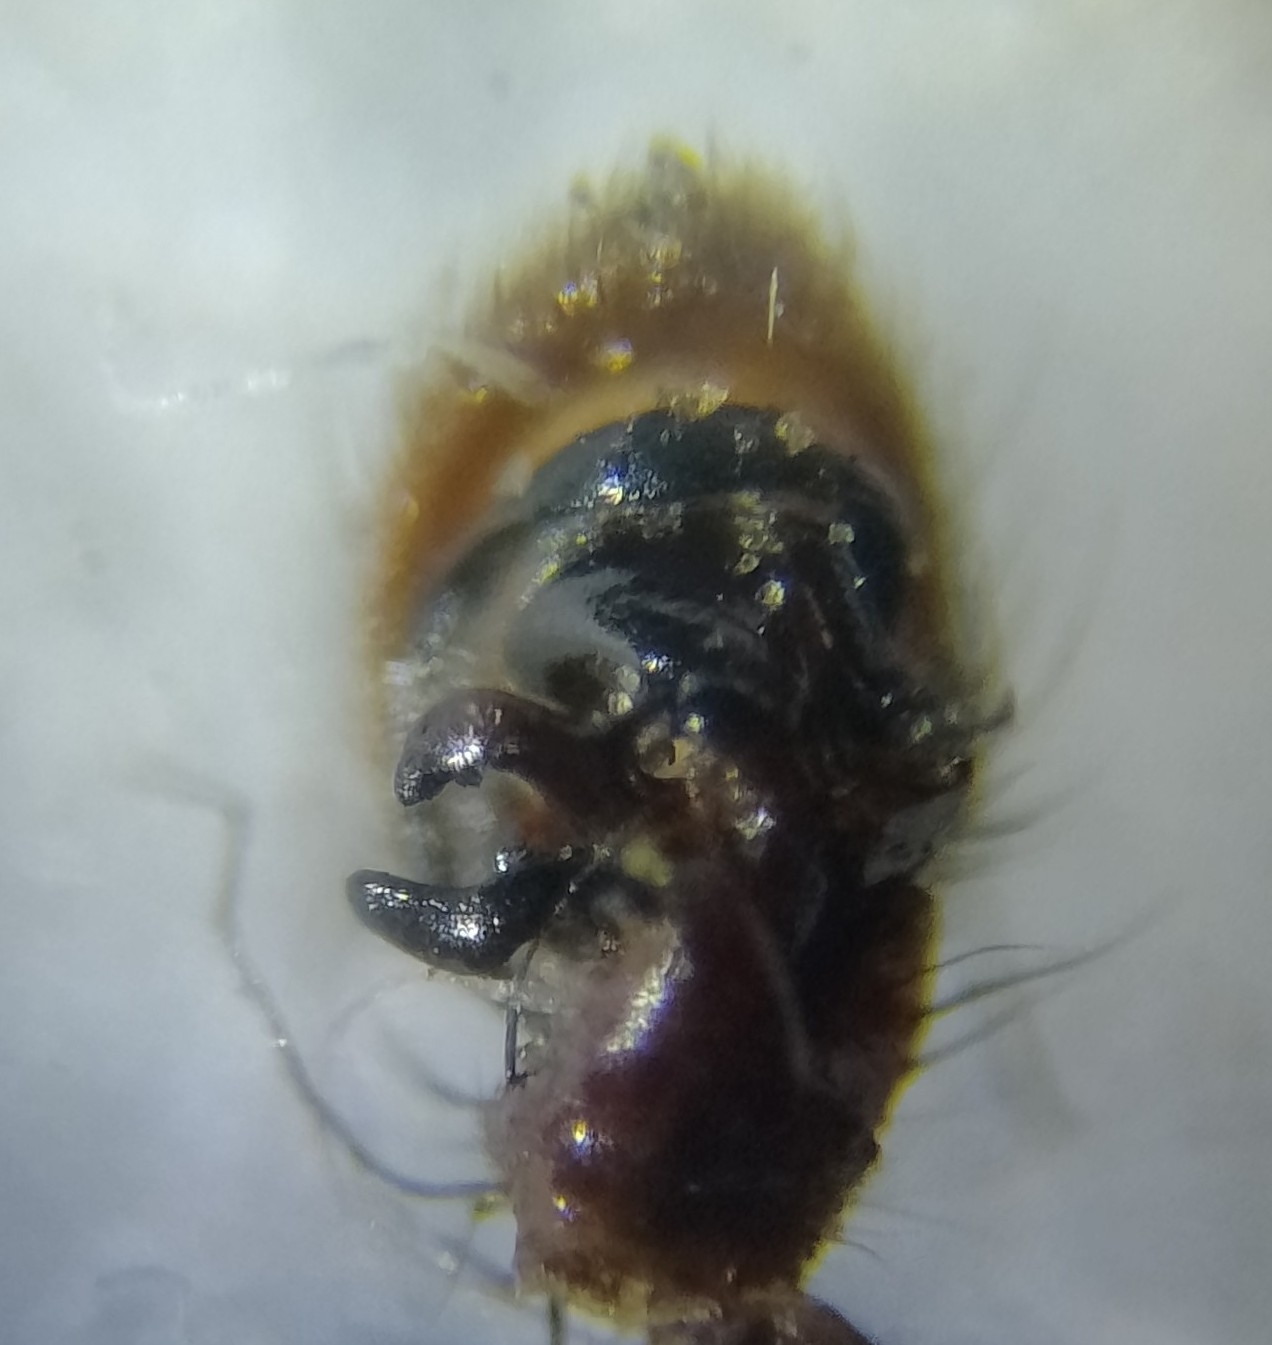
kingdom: Animalia
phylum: Arthropoda
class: Arachnida
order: Araneae
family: Thomisidae
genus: Xysticus
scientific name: Xysticus kochi
